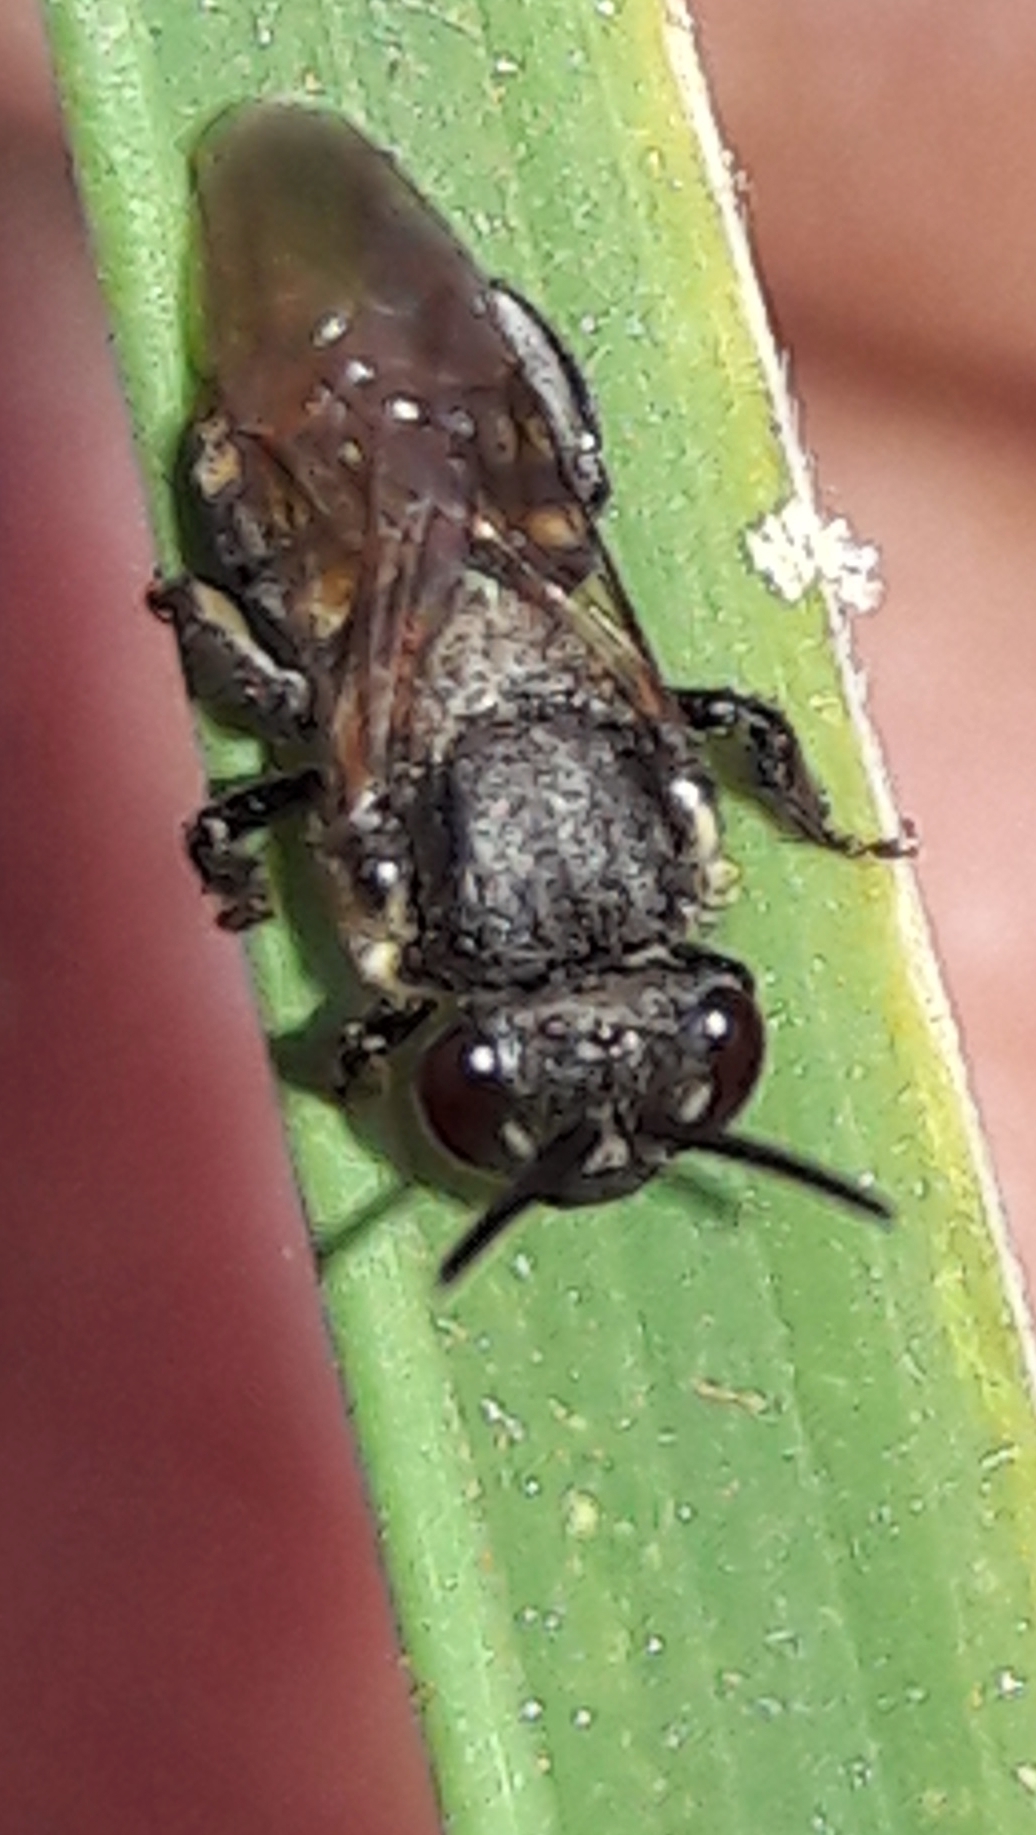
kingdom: Animalia
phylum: Arthropoda
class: Insecta
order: Hymenoptera
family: Apidae
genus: Scaptotrigona
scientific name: Scaptotrigona postica
